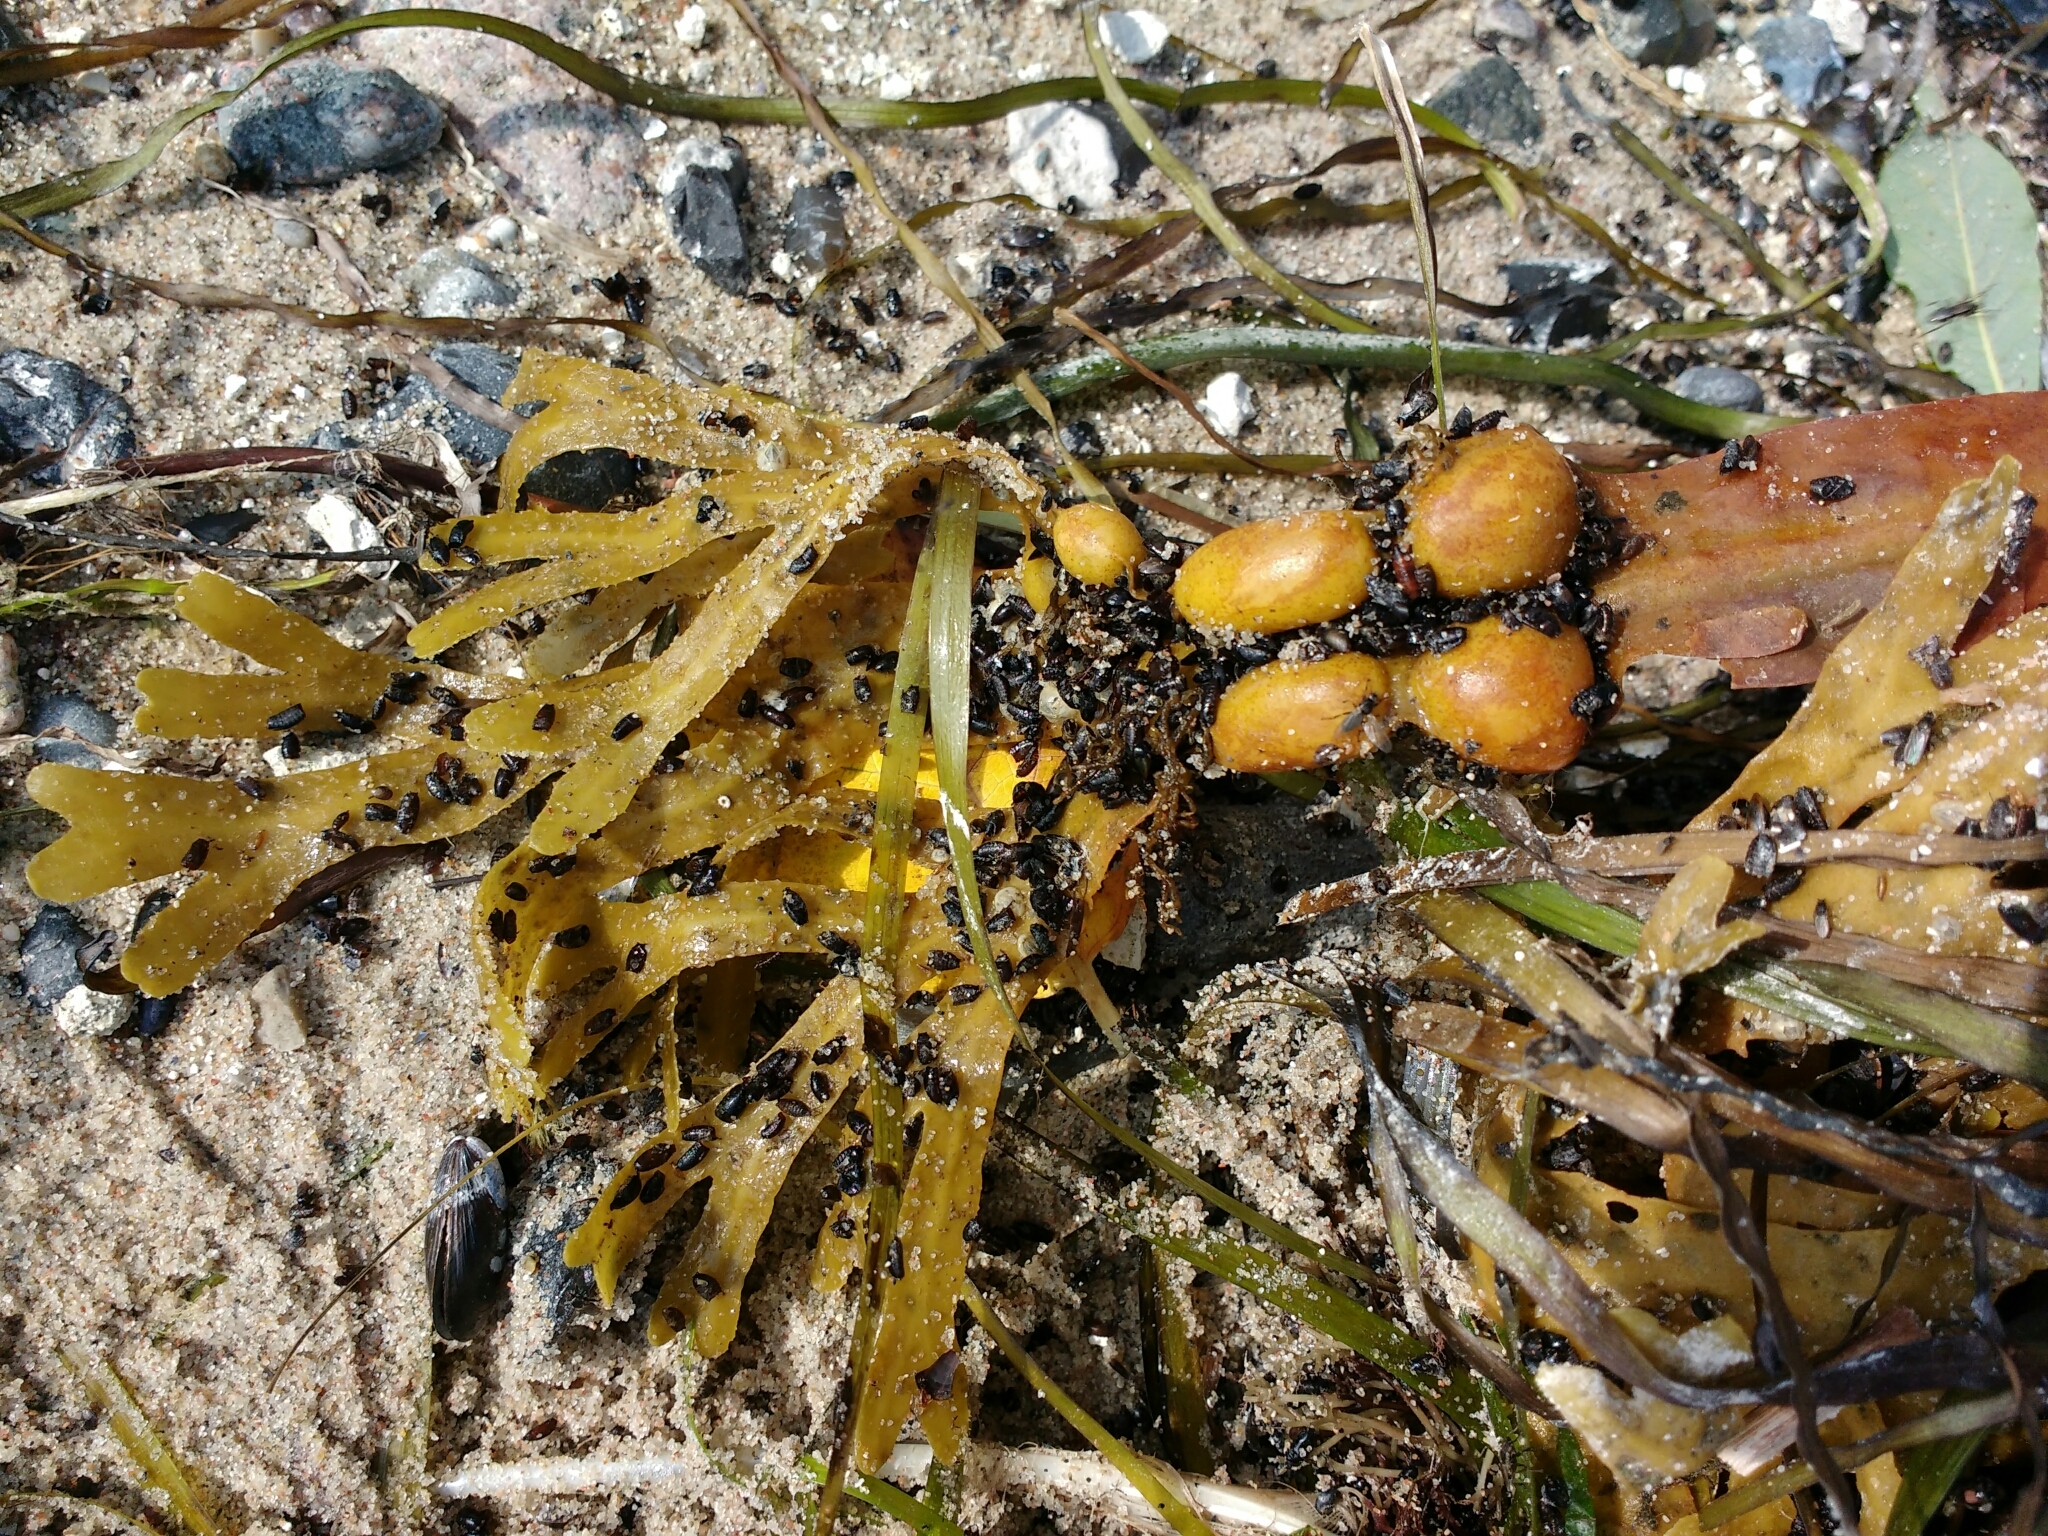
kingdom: Chromista
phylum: Ochrophyta
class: Phaeophyceae
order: Fucales
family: Fucaceae
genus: Fucus
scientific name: Fucus vesiculosus
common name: Bladder wrack
